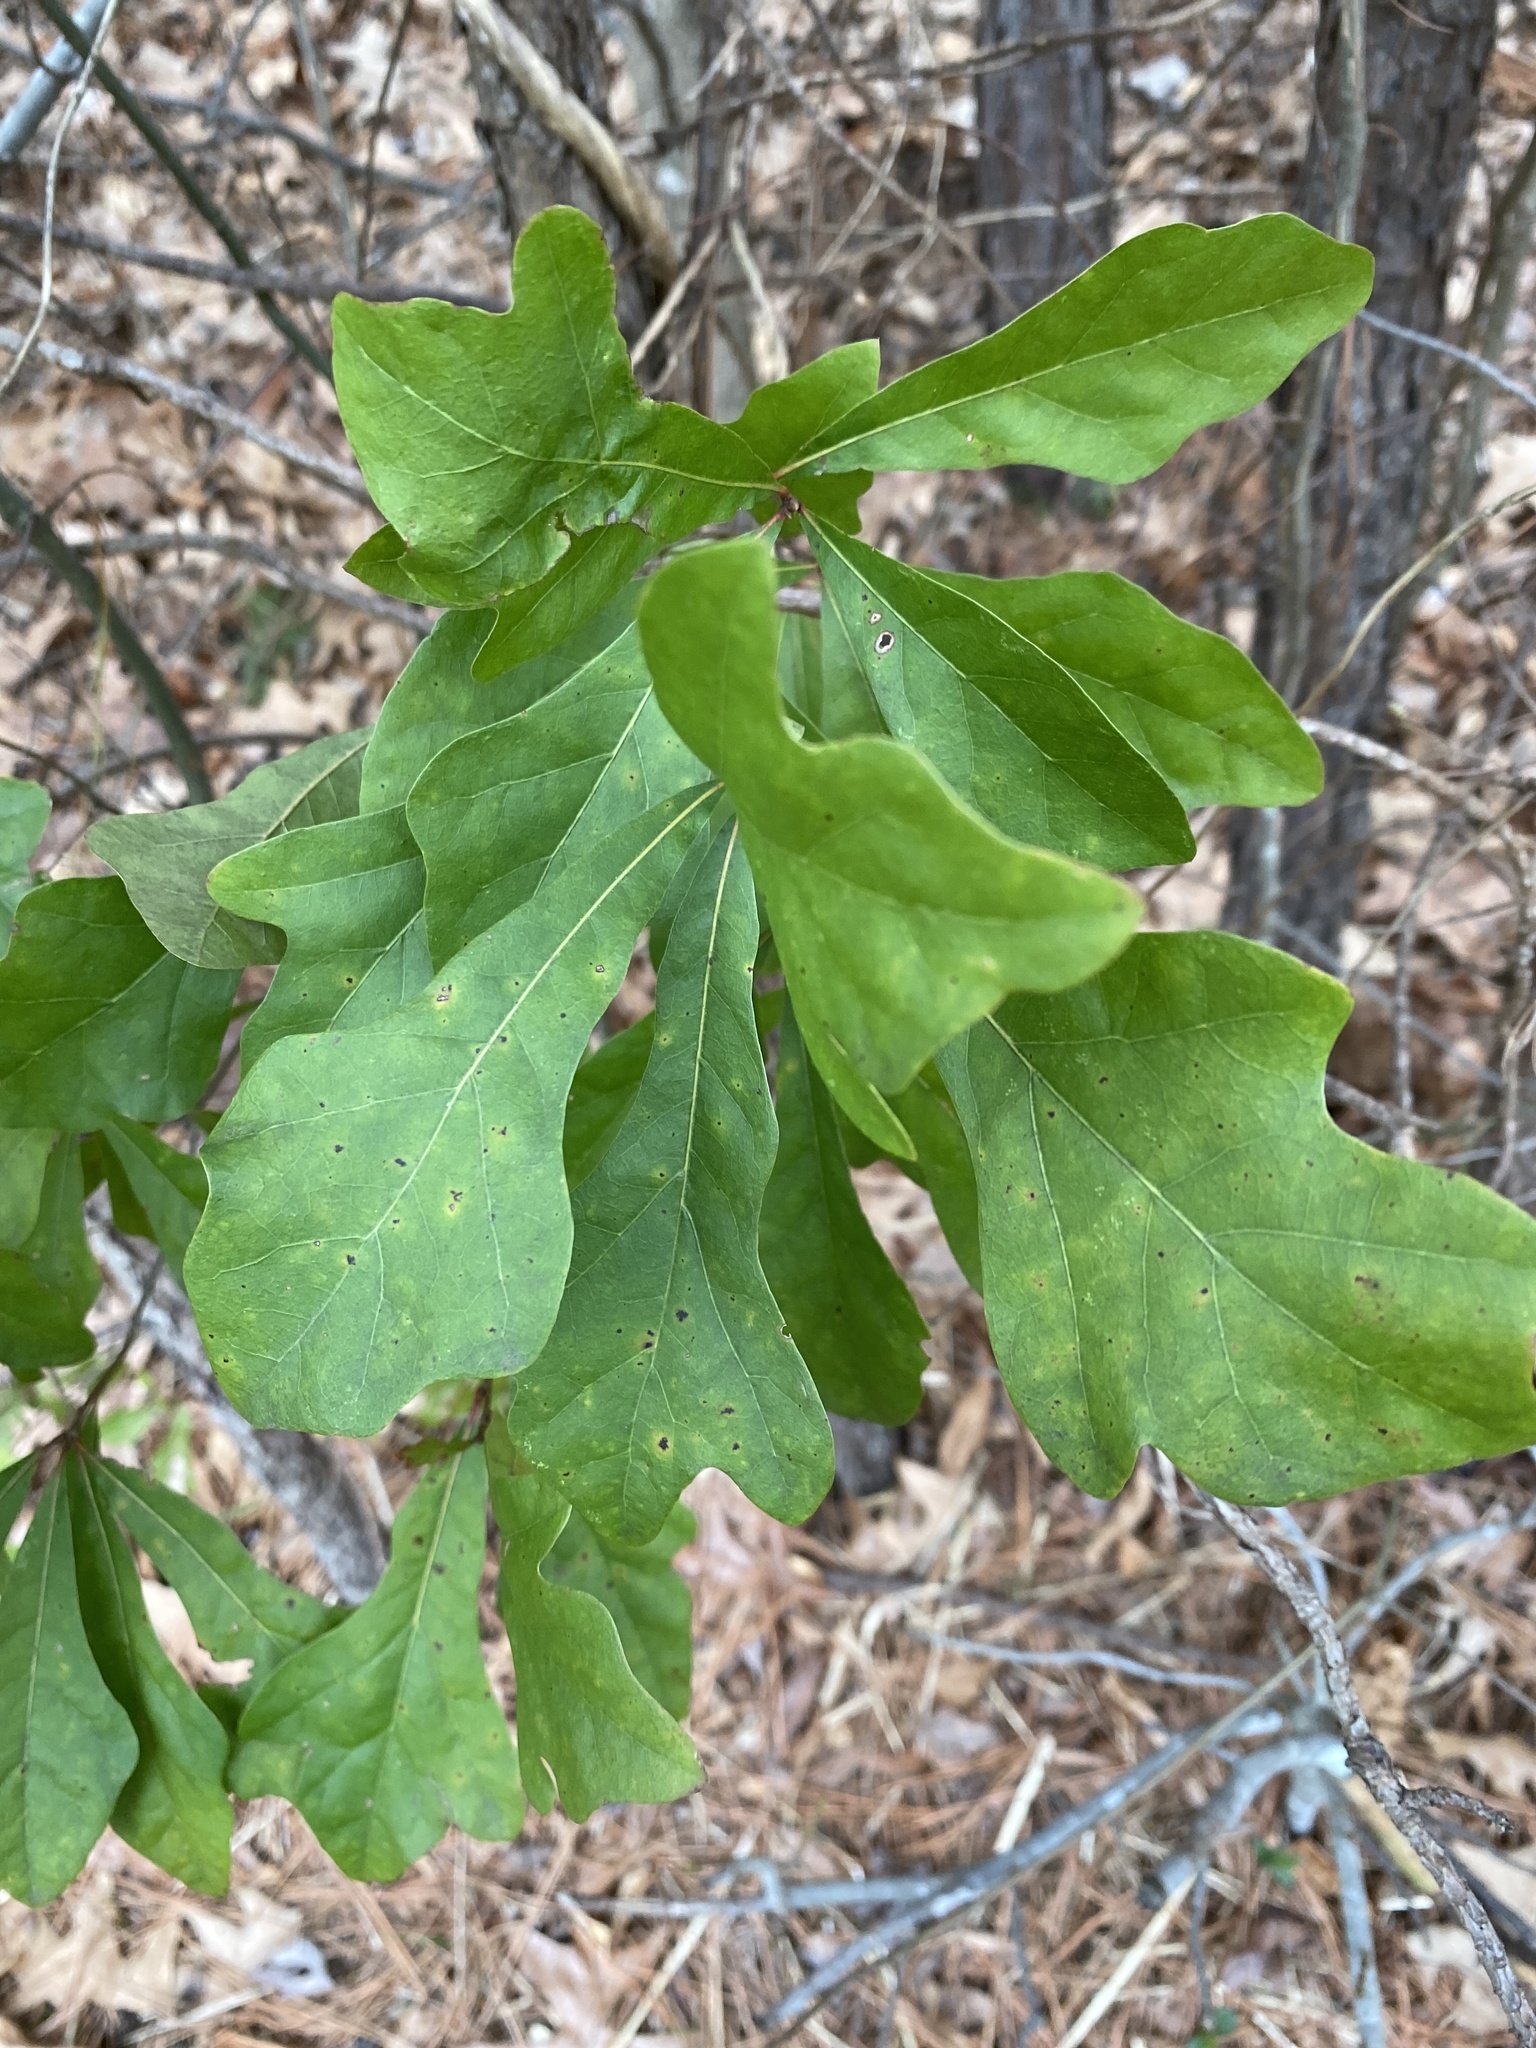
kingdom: Plantae
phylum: Tracheophyta
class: Magnoliopsida
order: Fagales
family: Fagaceae
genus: Quercus
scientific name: Quercus nigra
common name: Water oak
